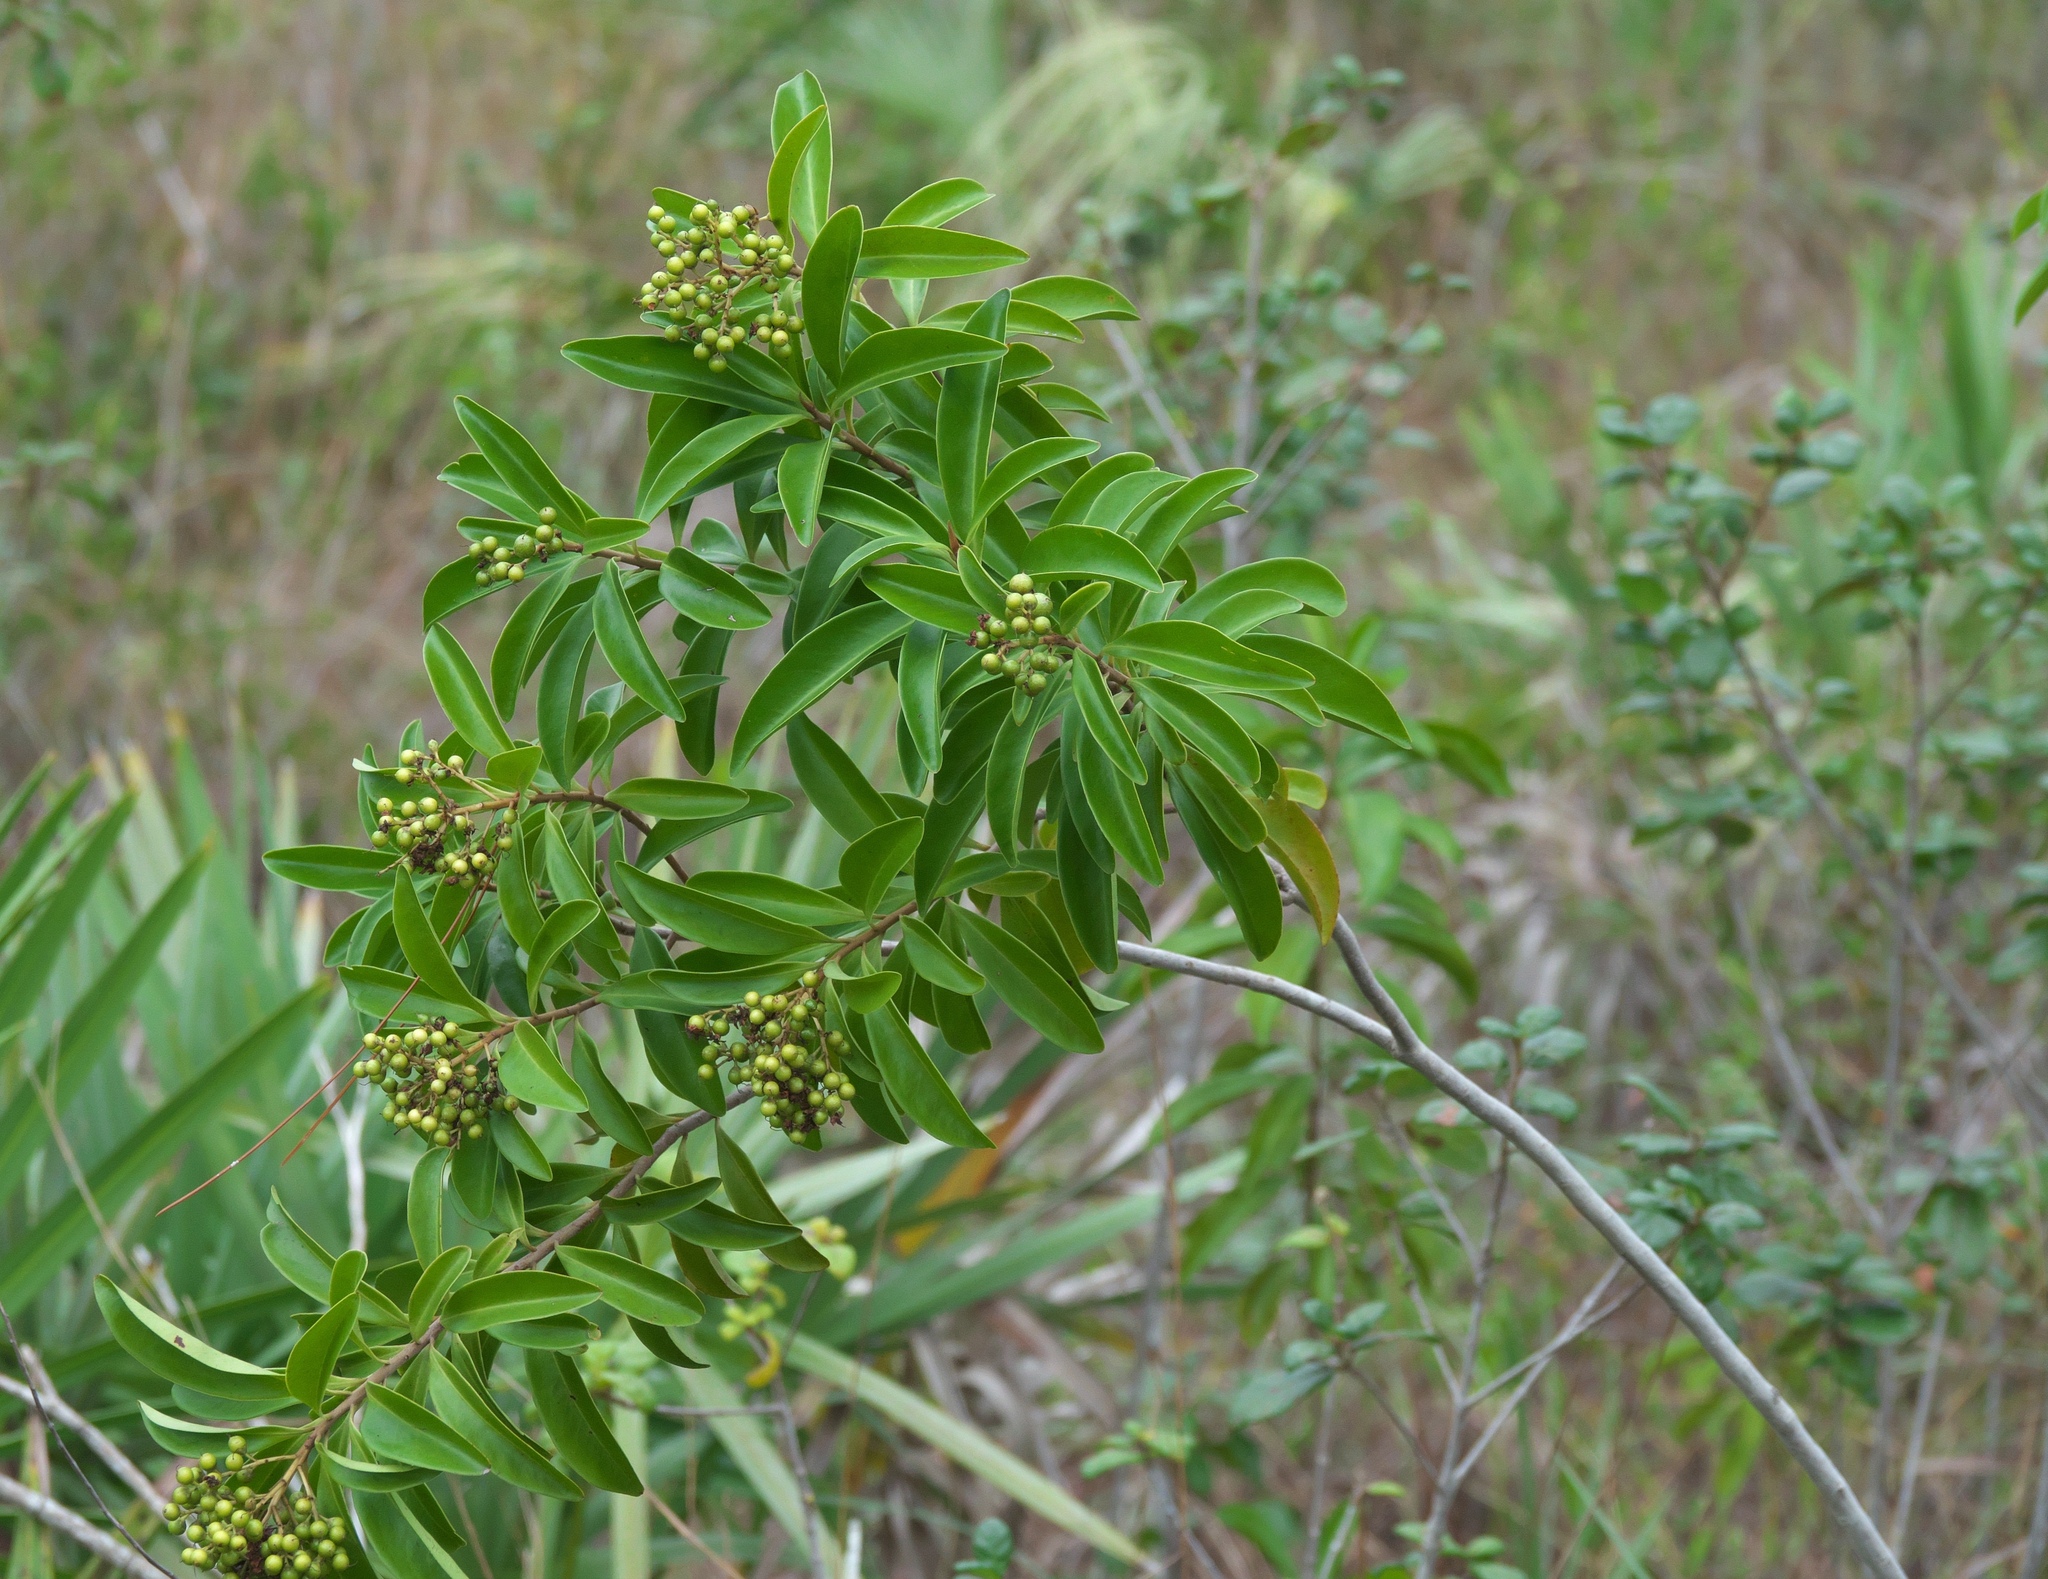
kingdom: Plantae
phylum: Tracheophyta
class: Magnoliopsida
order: Ericales
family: Primulaceae
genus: Ardisia
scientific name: Ardisia escallonioides
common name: Island marlberry
